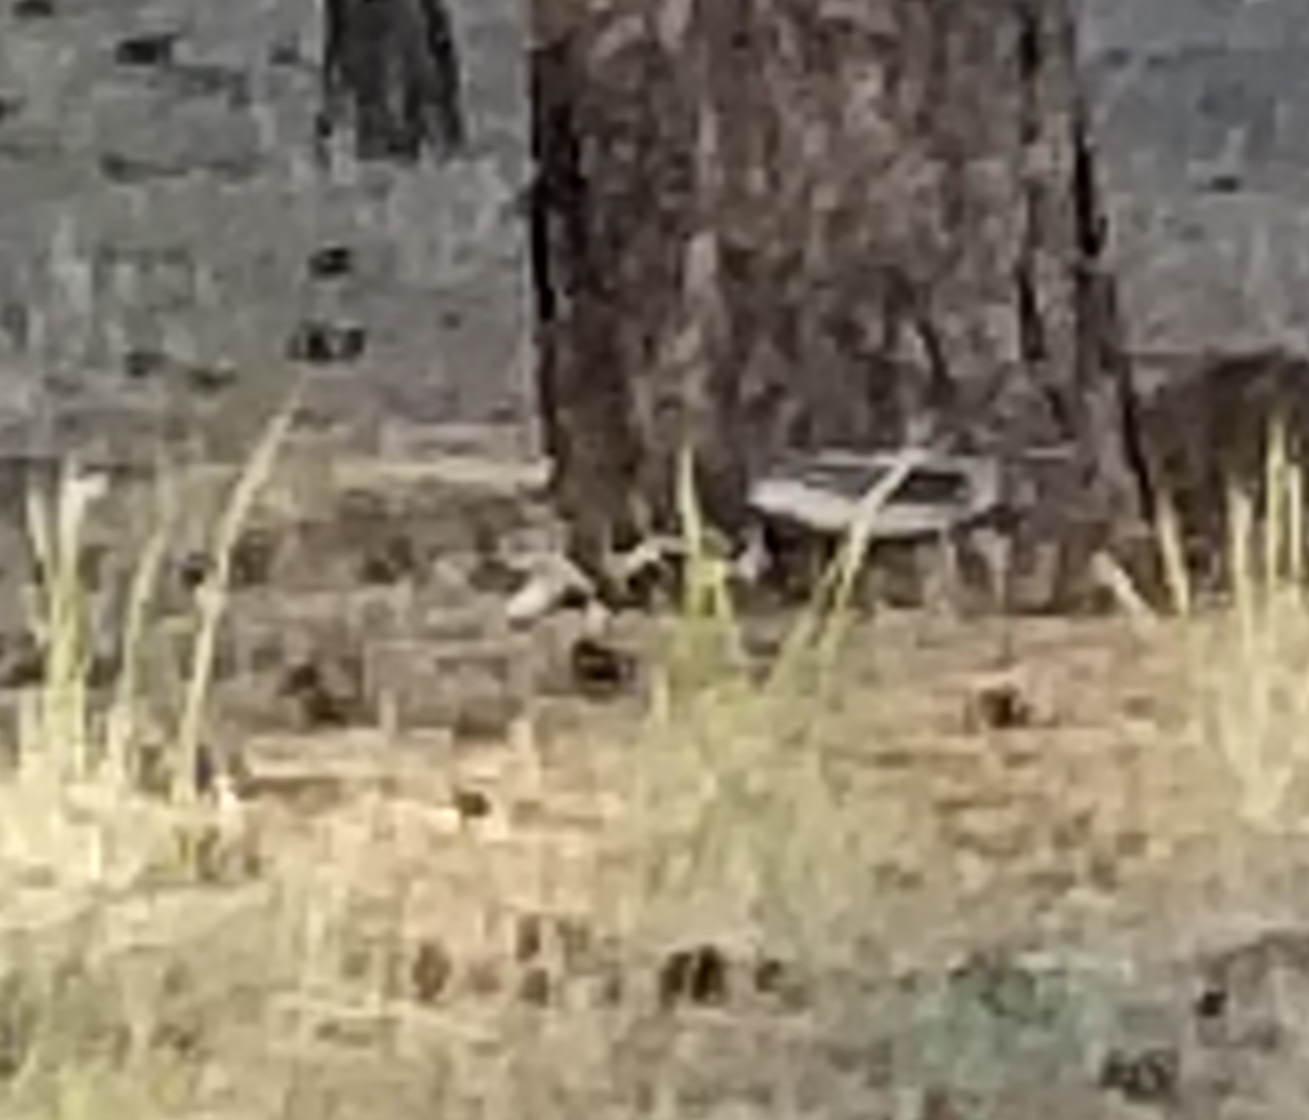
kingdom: Animalia
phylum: Chordata
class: Mammalia
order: Rodentia
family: Sciuridae
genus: Sciurus
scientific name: Sciurus aberti
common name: Abert's squirrel
